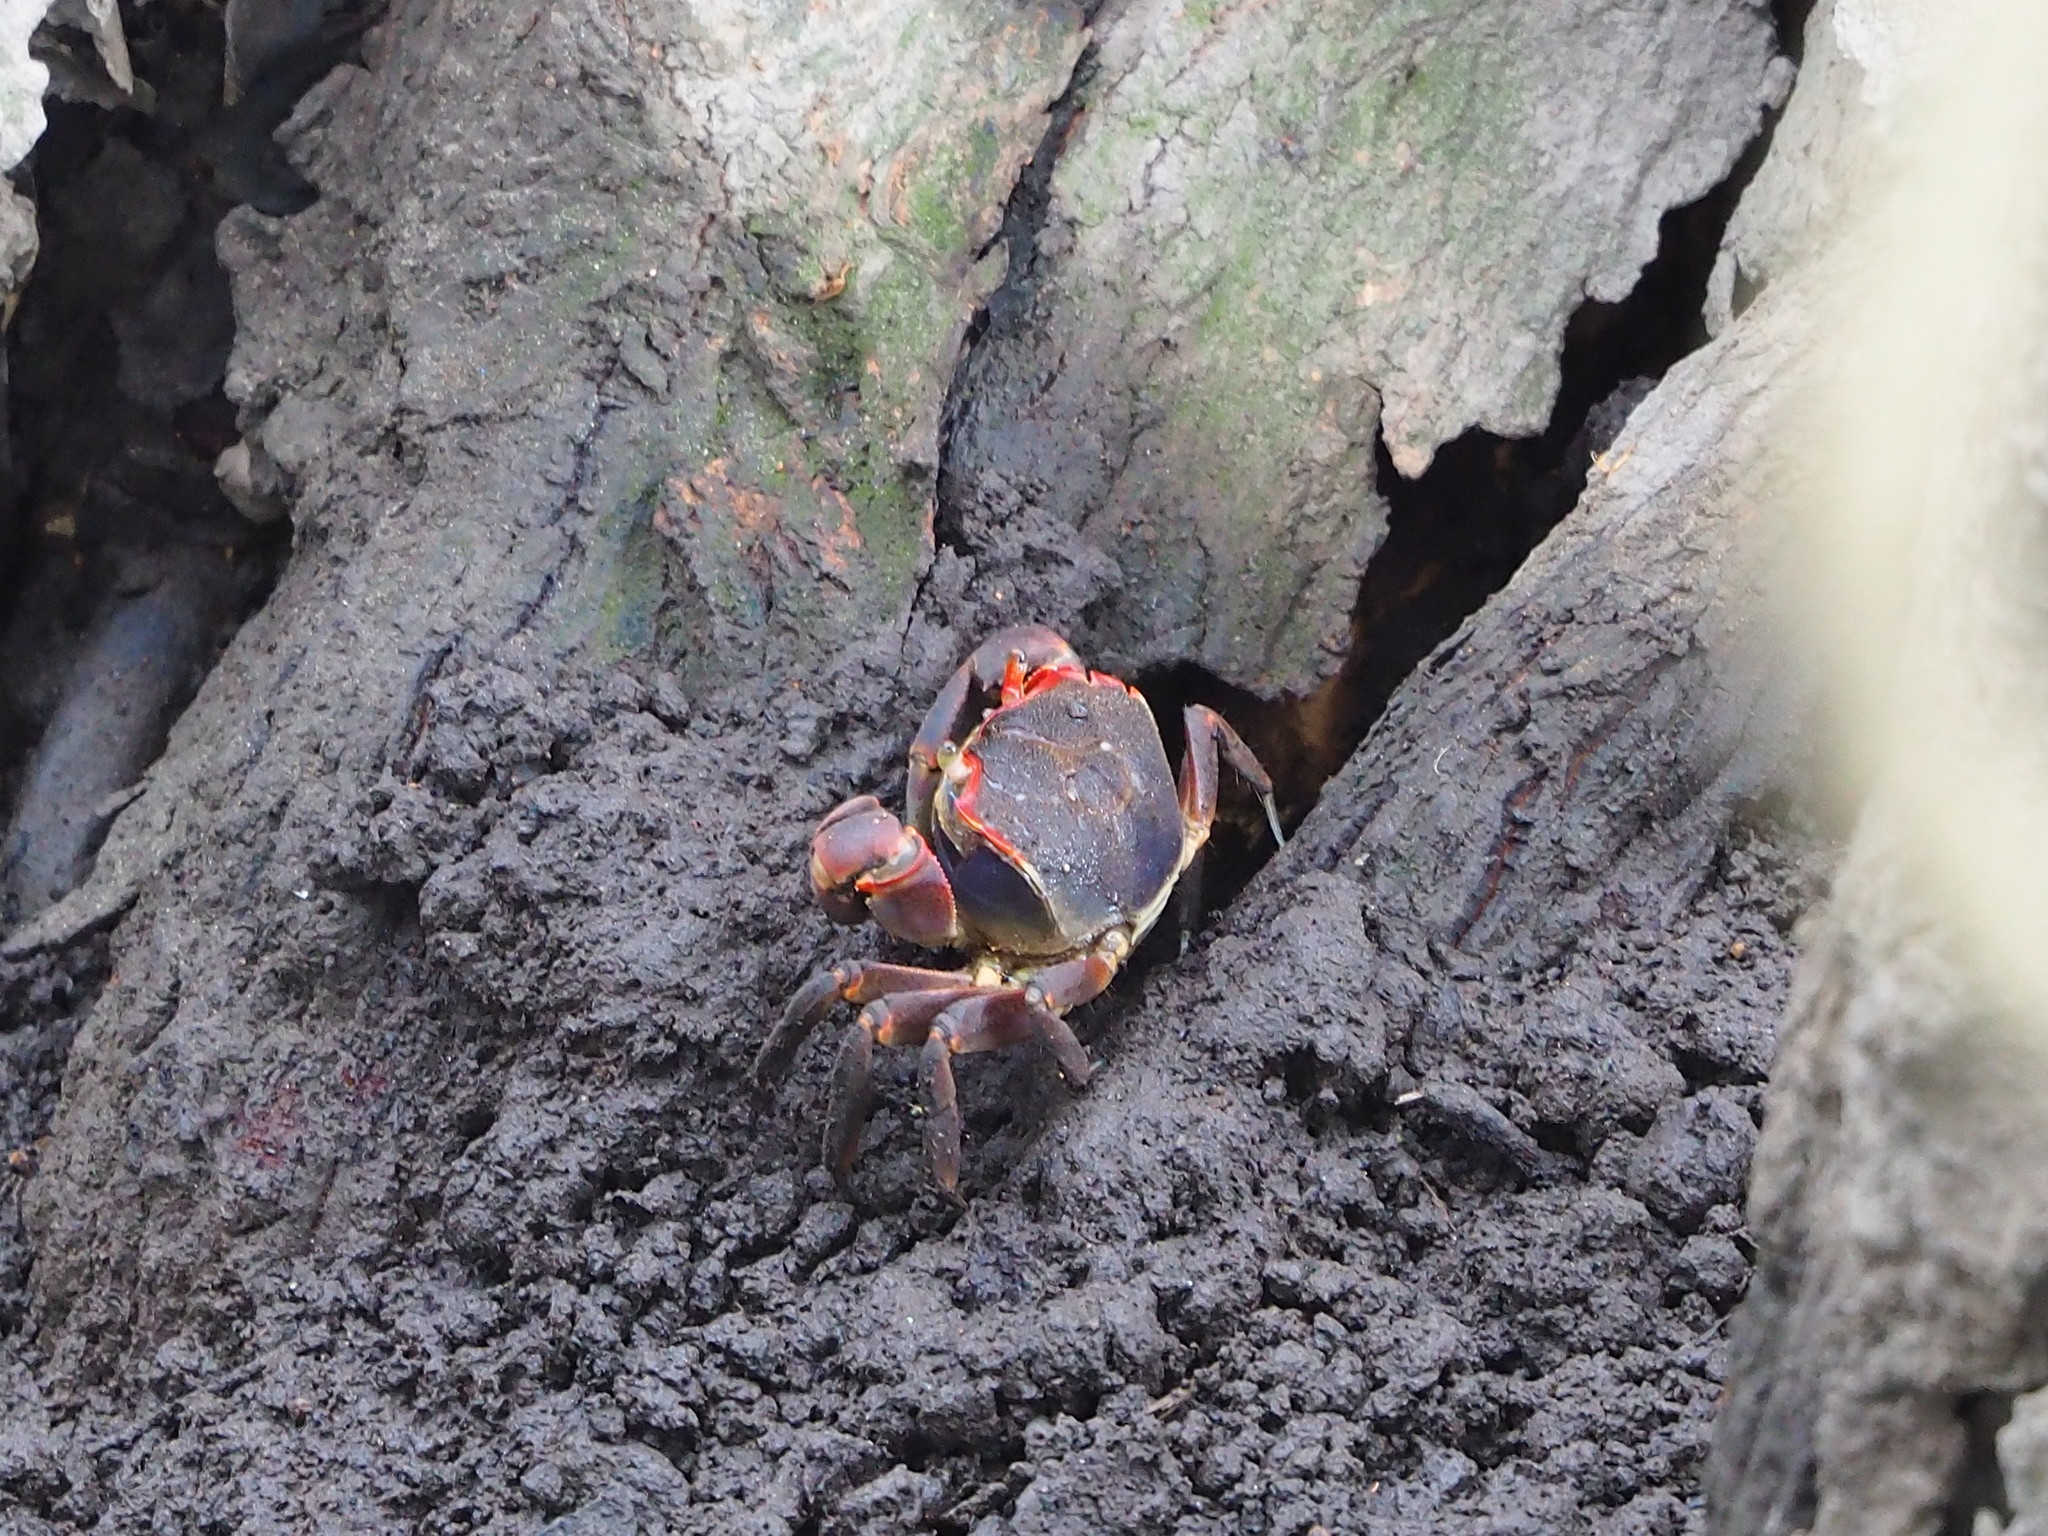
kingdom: Animalia
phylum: Arthropoda
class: Malacostraca
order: Decapoda
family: Varunidae
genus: Chasmagnathus
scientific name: Chasmagnathus convexus
